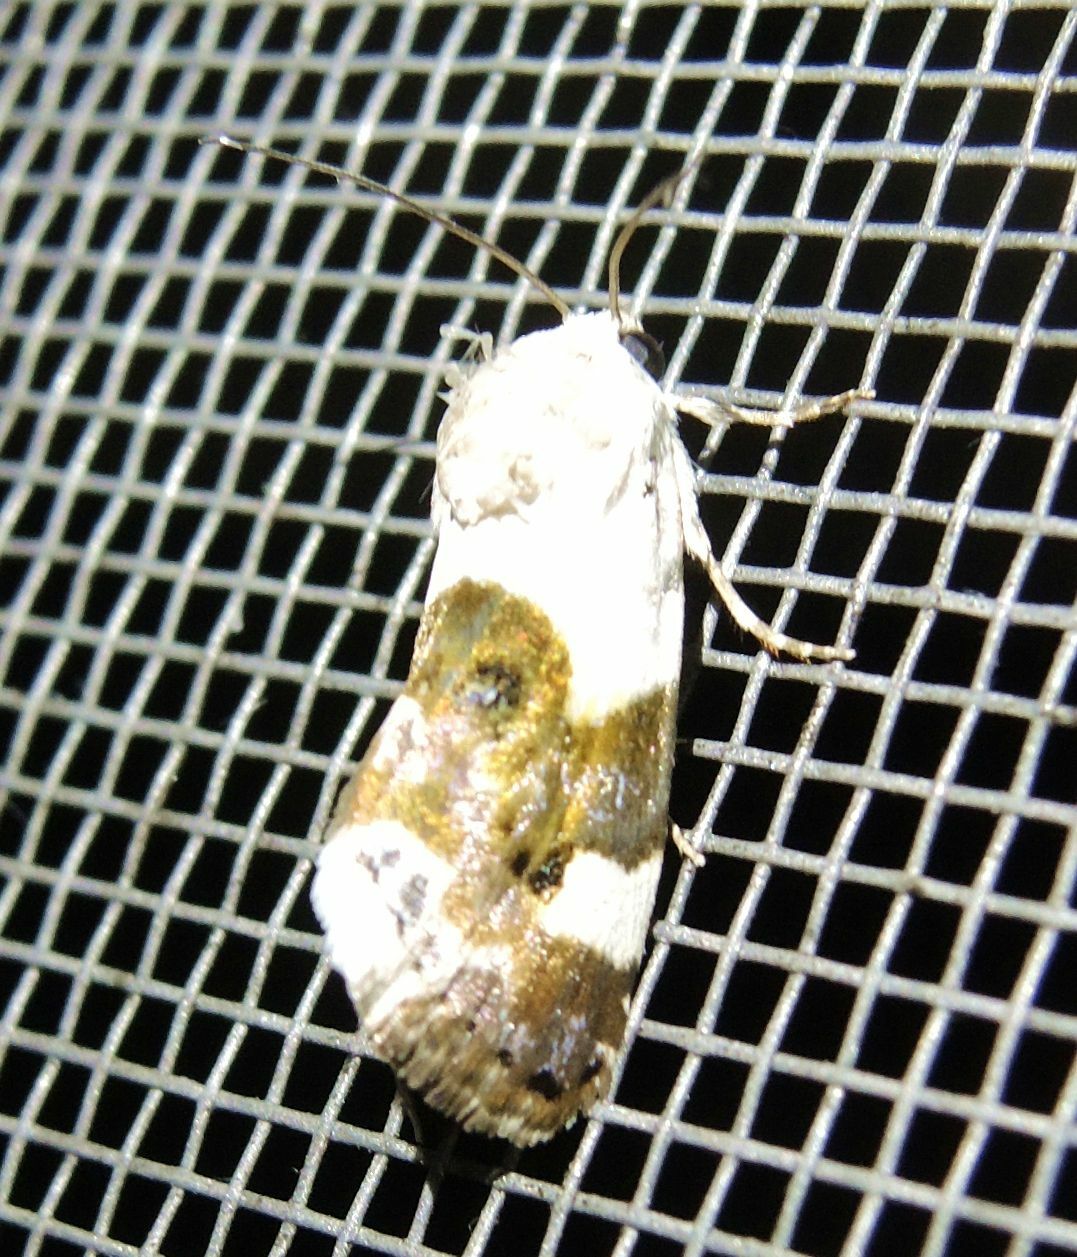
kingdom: Animalia
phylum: Arthropoda
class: Insecta
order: Lepidoptera
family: Noctuidae
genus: Acontia
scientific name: Acontia lucida
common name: Pale shoulder
